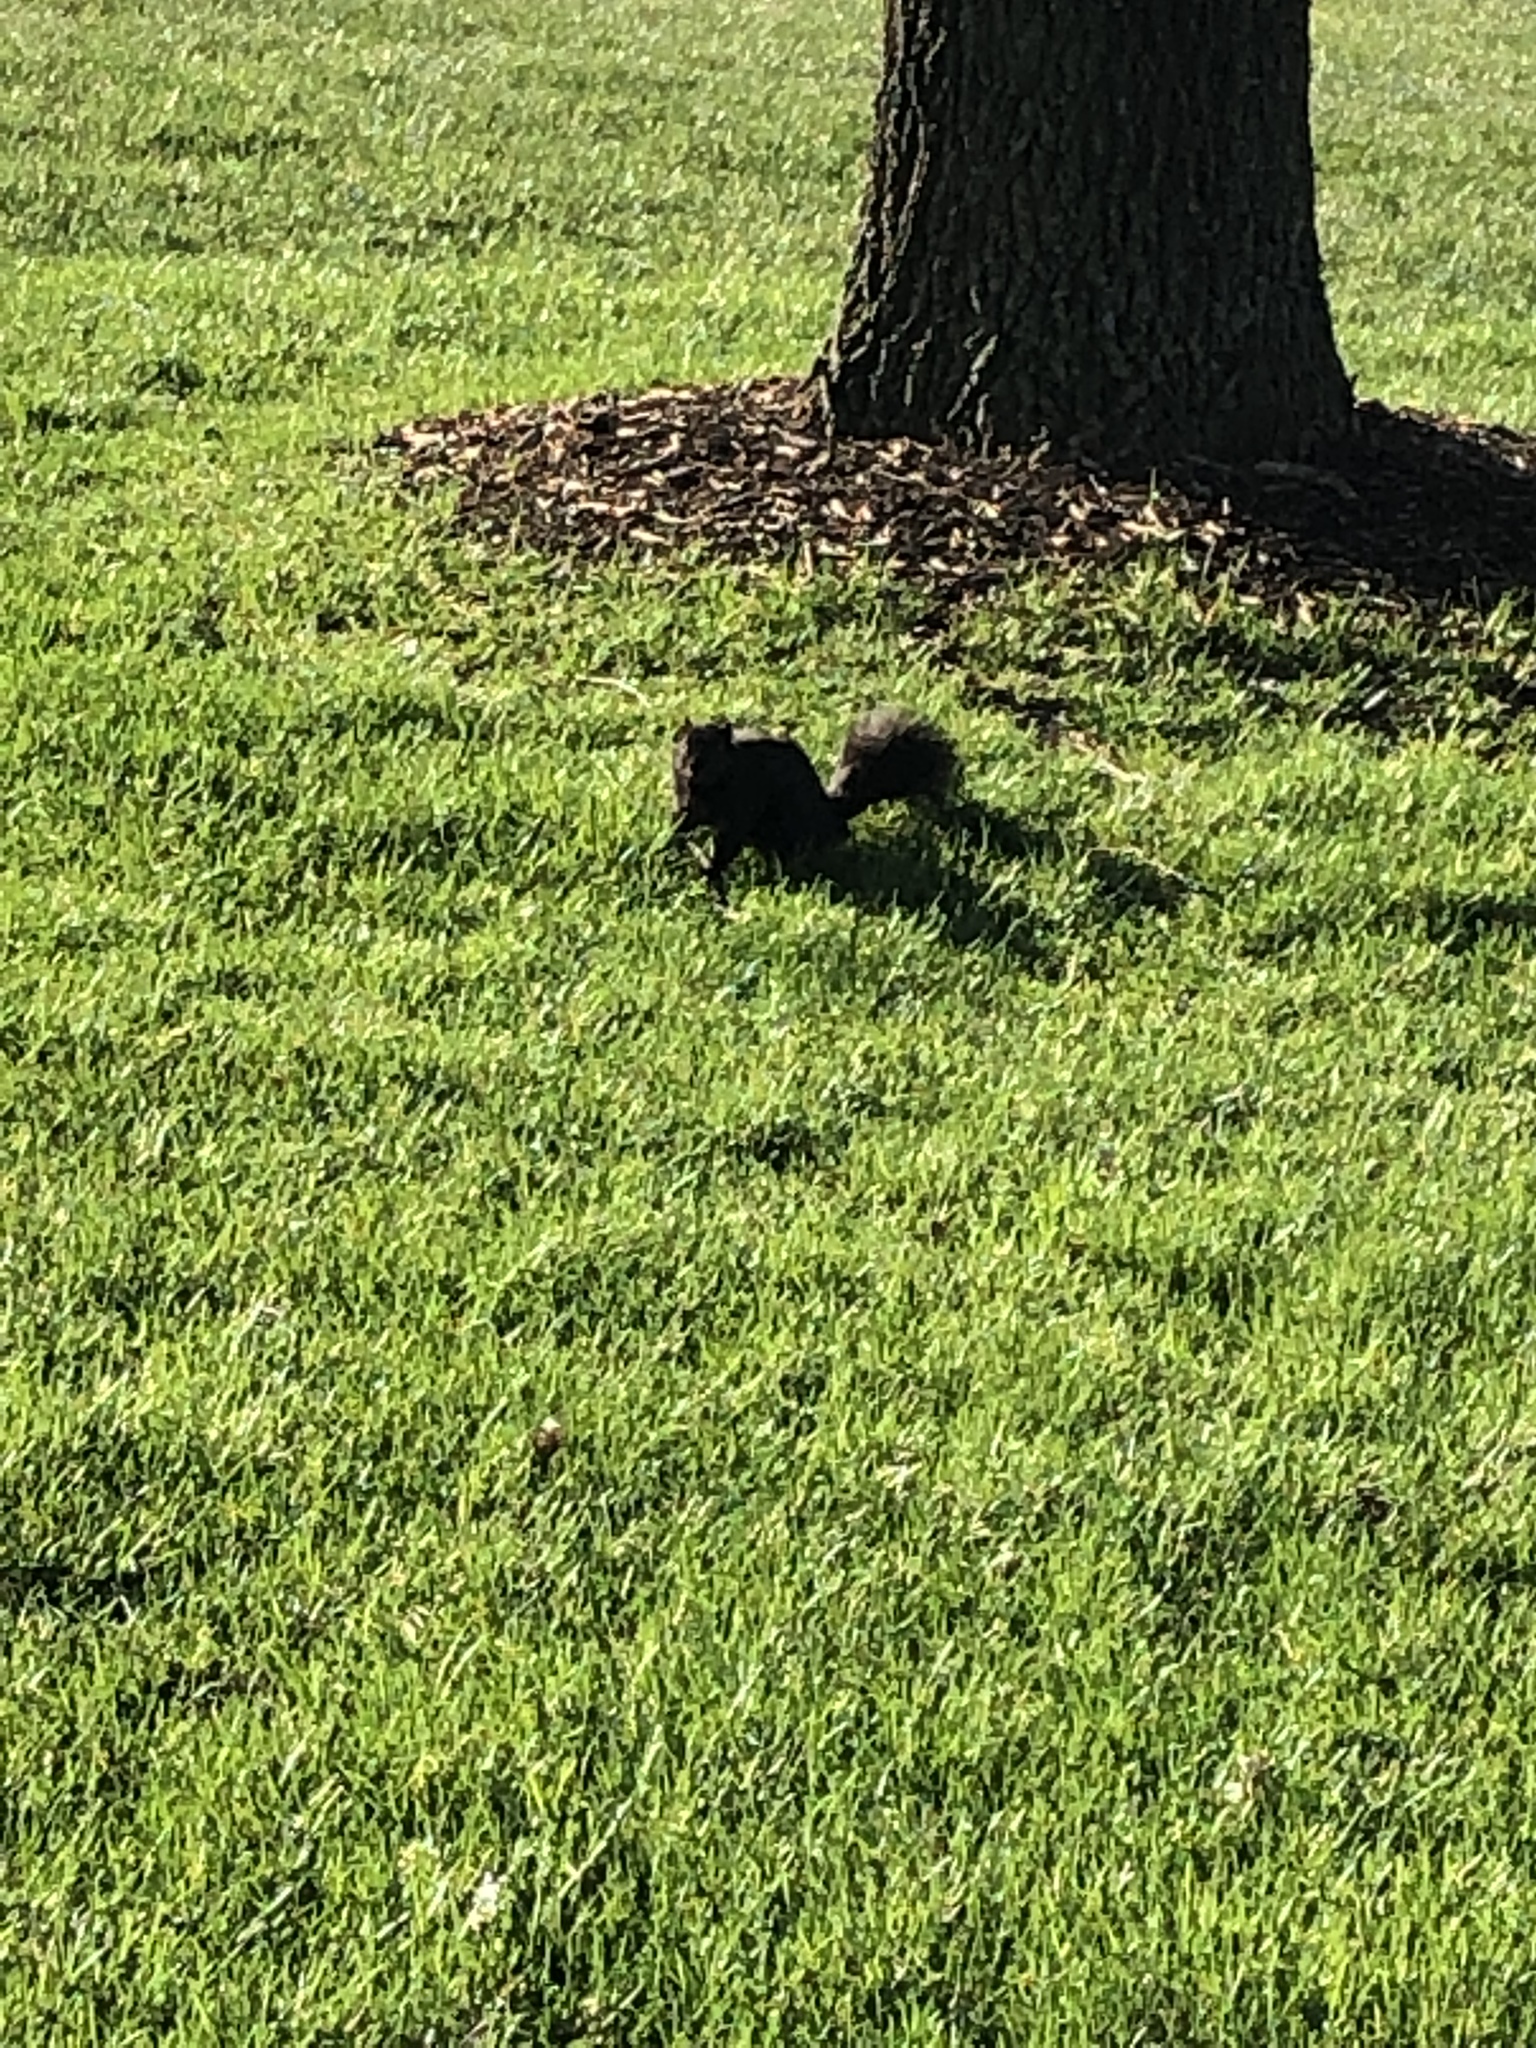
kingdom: Animalia
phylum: Chordata
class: Mammalia
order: Rodentia
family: Sciuridae
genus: Sciurus
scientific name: Sciurus niger
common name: Fox squirrel
